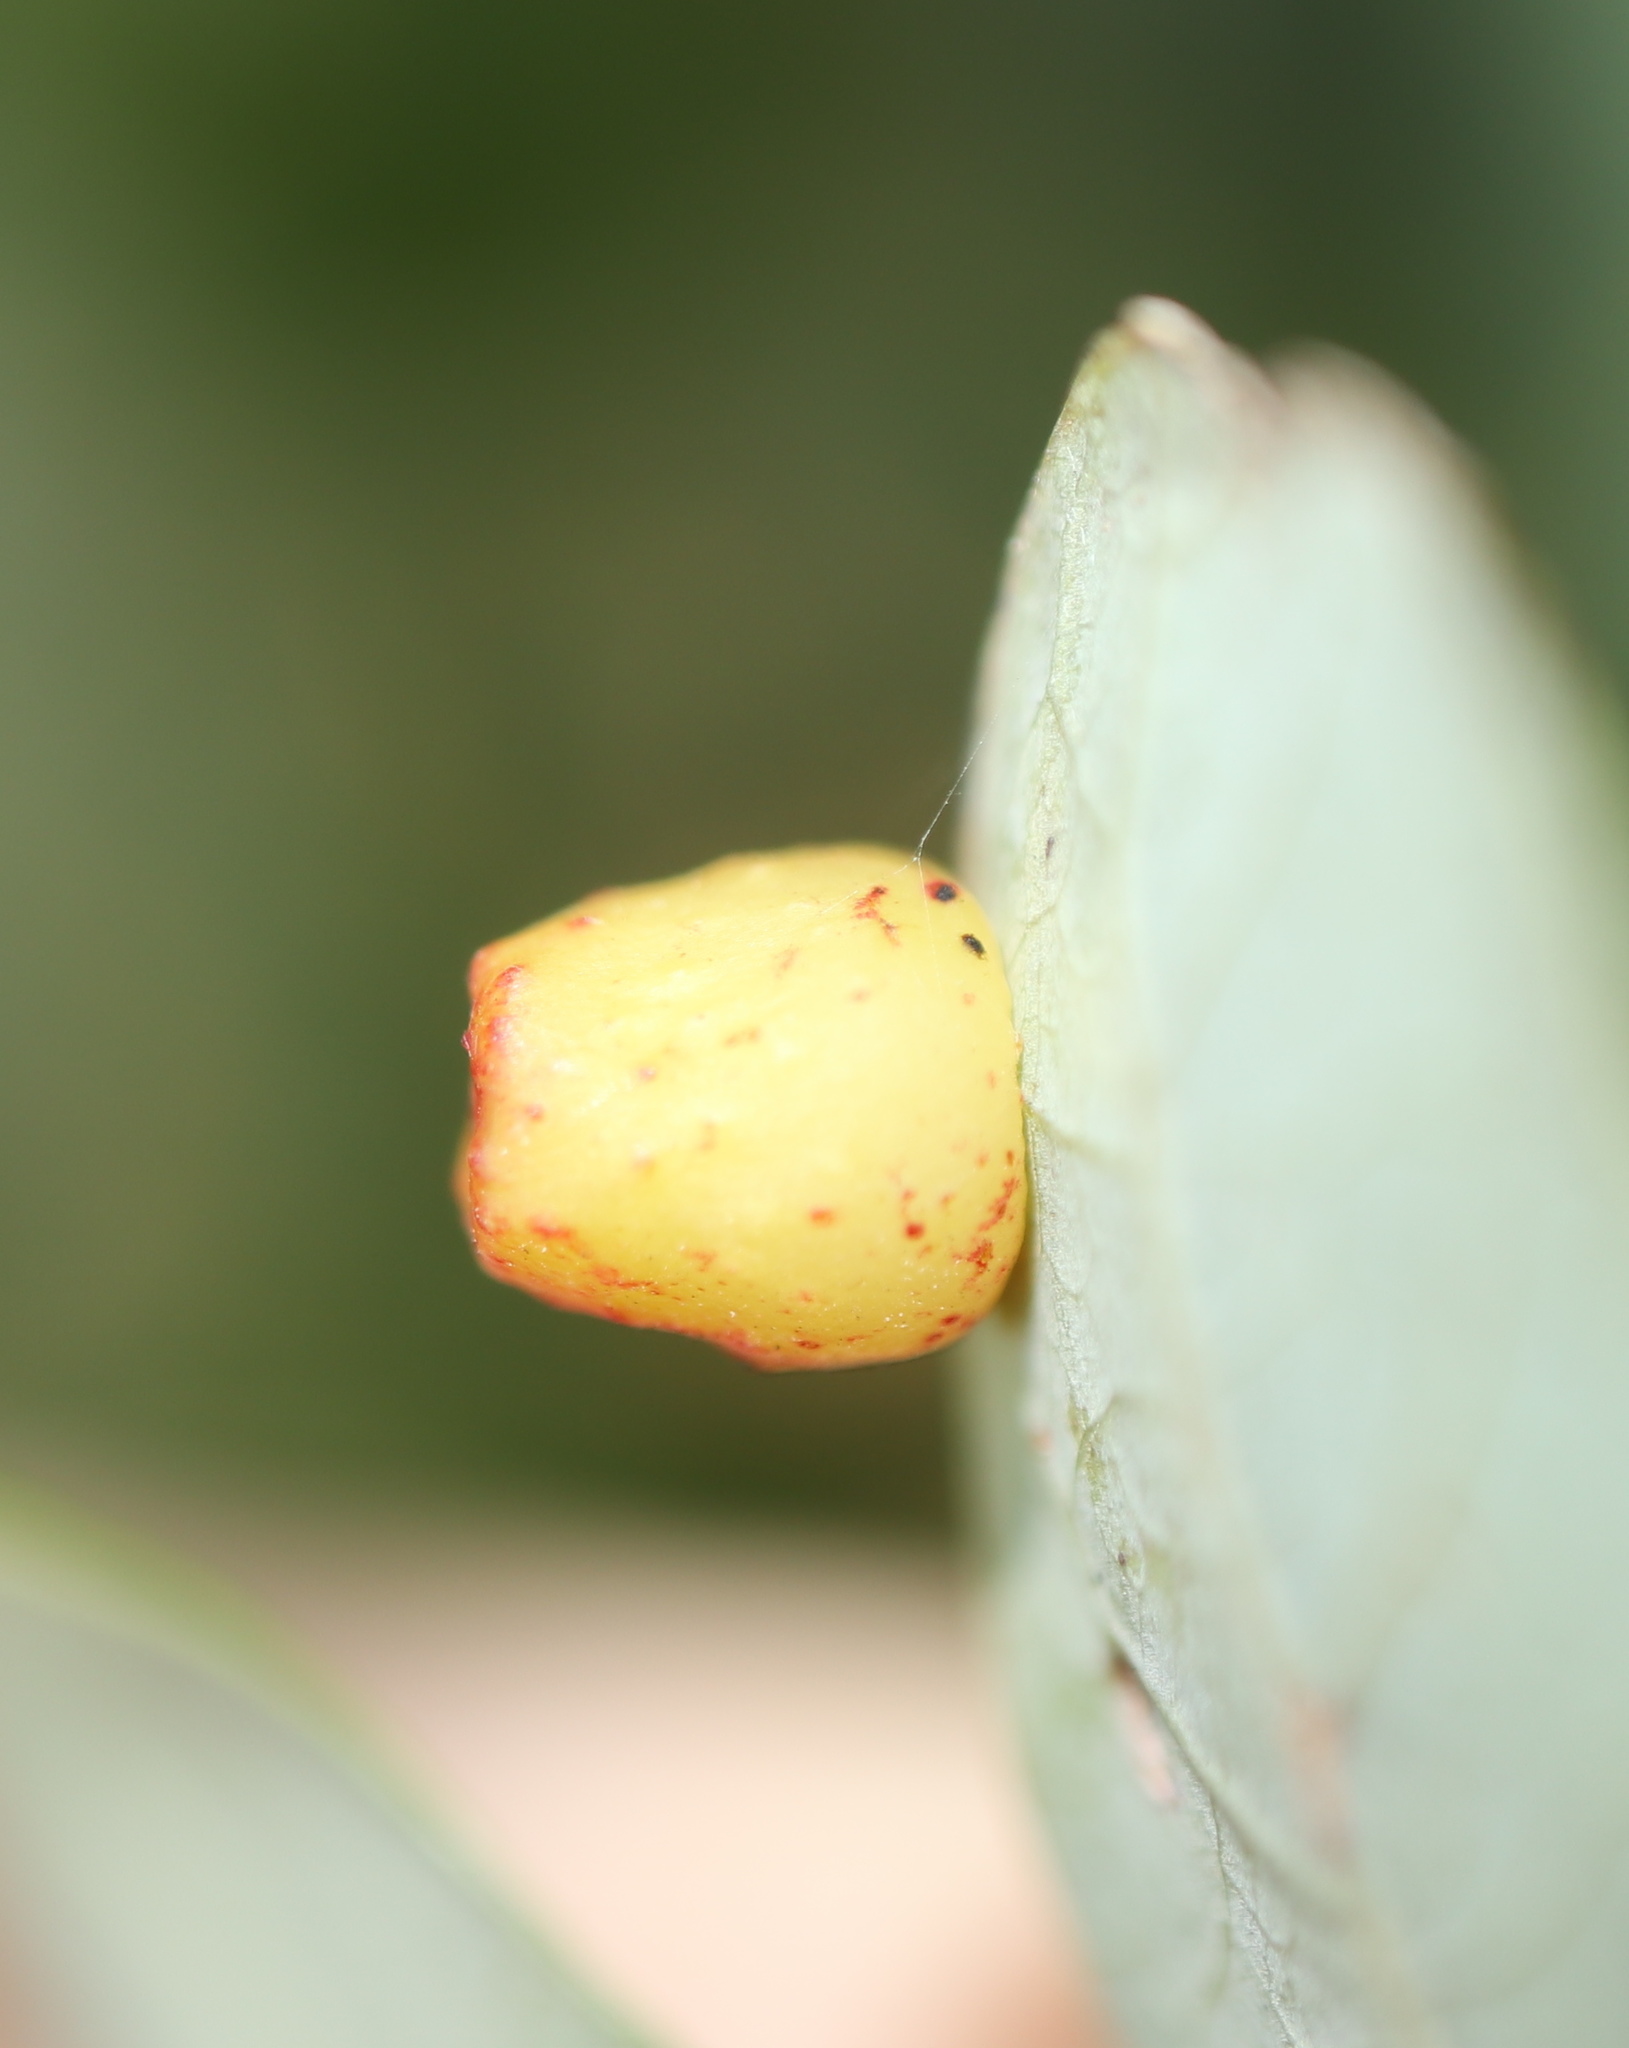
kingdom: Animalia
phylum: Arthropoda
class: Insecta
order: Hymenoptera
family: Cynipidae
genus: Andricus
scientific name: Andricus
